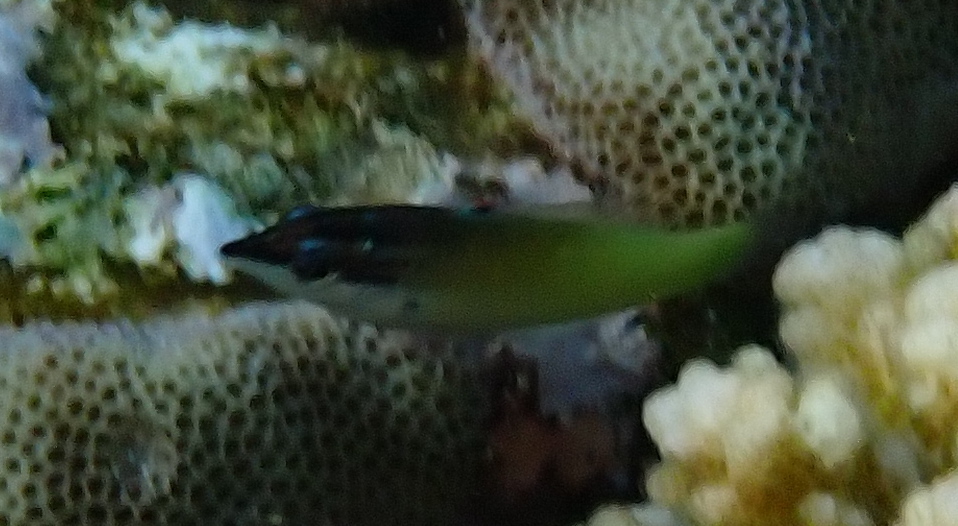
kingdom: Animalia
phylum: Chordata
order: Perciformes
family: Labridae
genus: Gomphosus
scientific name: Gomphosus klunzingeri
